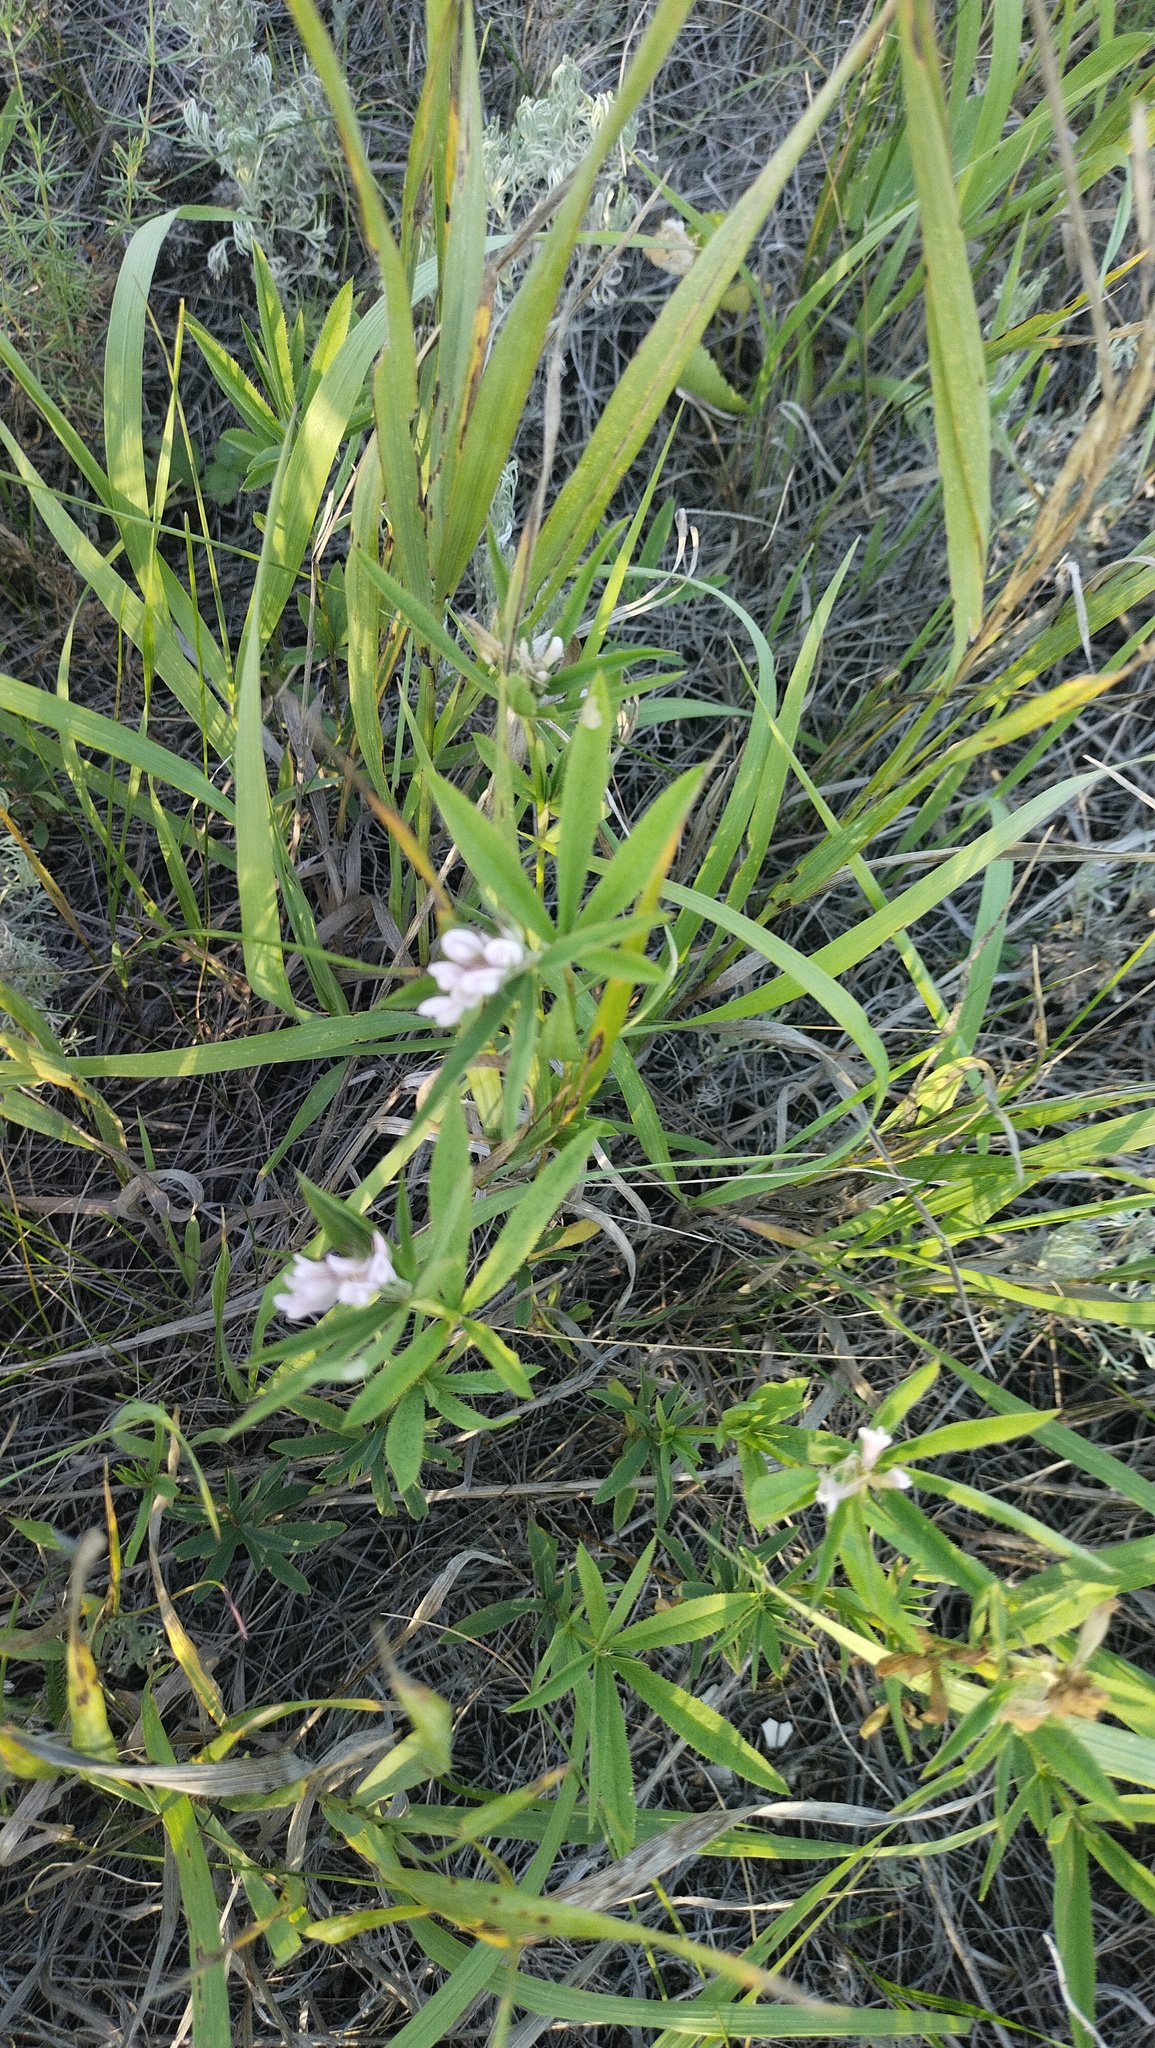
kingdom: Plantae
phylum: Tracheophyta
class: Magnoliopsida
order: Fabales
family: Fabaceae
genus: Trifolium
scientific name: Trifolium lupinaster
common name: Lupine clover
